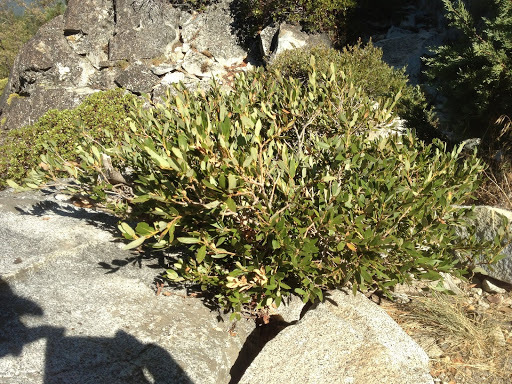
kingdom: Plantae
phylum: Tracheophyta
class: Magnoliopsida
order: Rosales
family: Rhamnaceae
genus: Ceanothus
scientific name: Ceanothus velutinus
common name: Snowbrush
